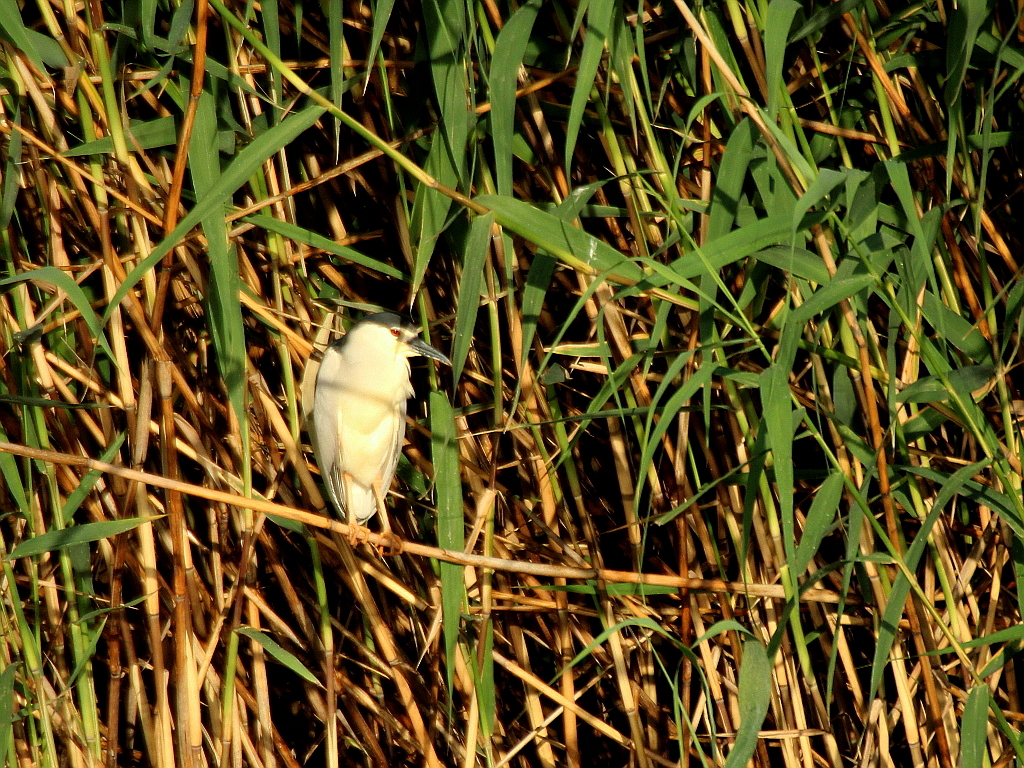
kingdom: Animalia
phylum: Chordata
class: Aves
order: Pelecaniformes
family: Ardeidae
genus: Nycticorax
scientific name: Nycticorax nycticorax
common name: Black-crowned night heron
